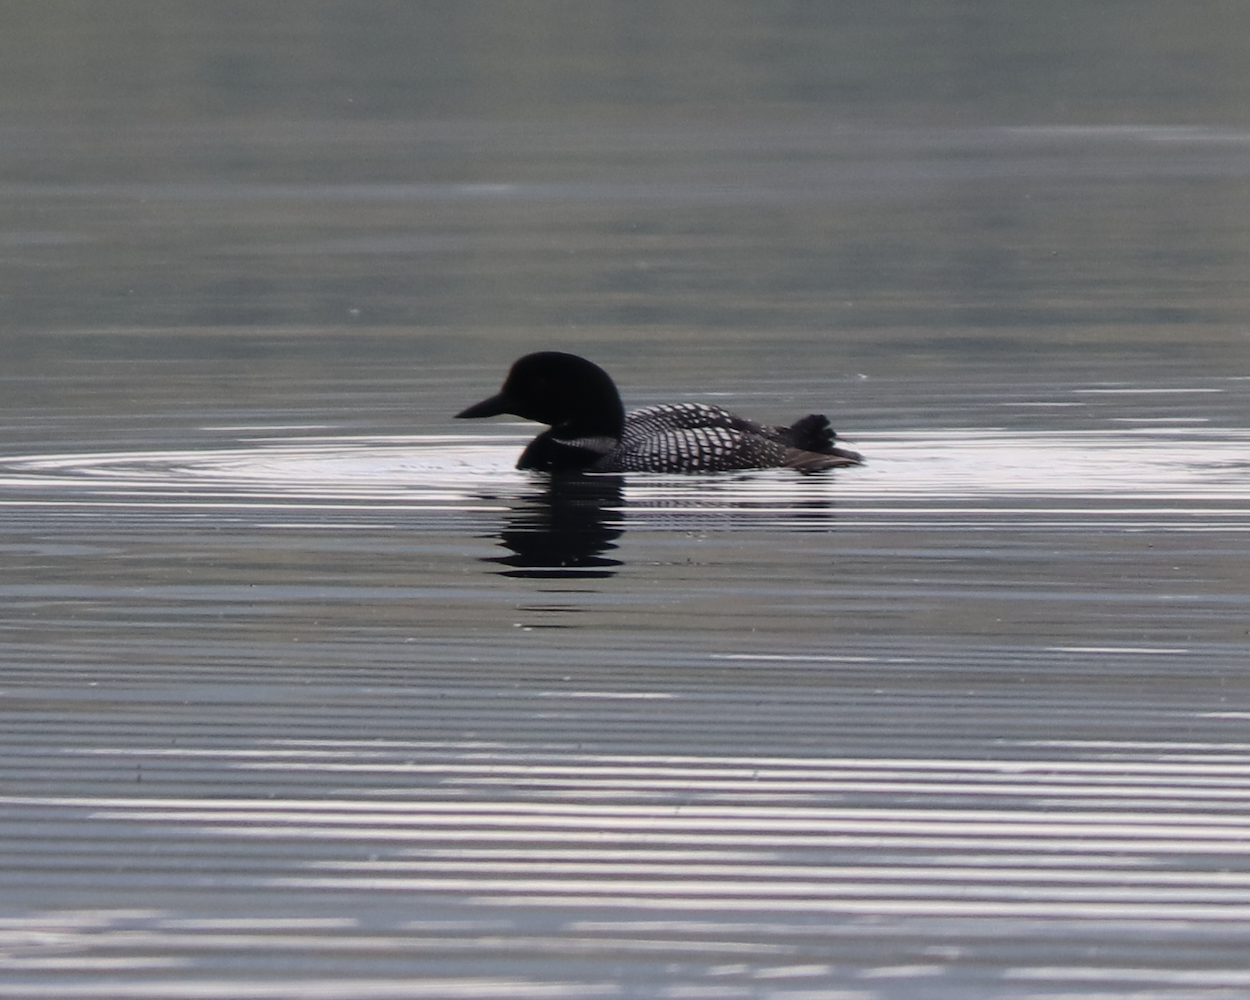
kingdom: Animalia
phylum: Chordata
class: Aves
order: Gaviiformes
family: Gaviidae
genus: Gavia
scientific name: Gavia immer
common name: Common loon
